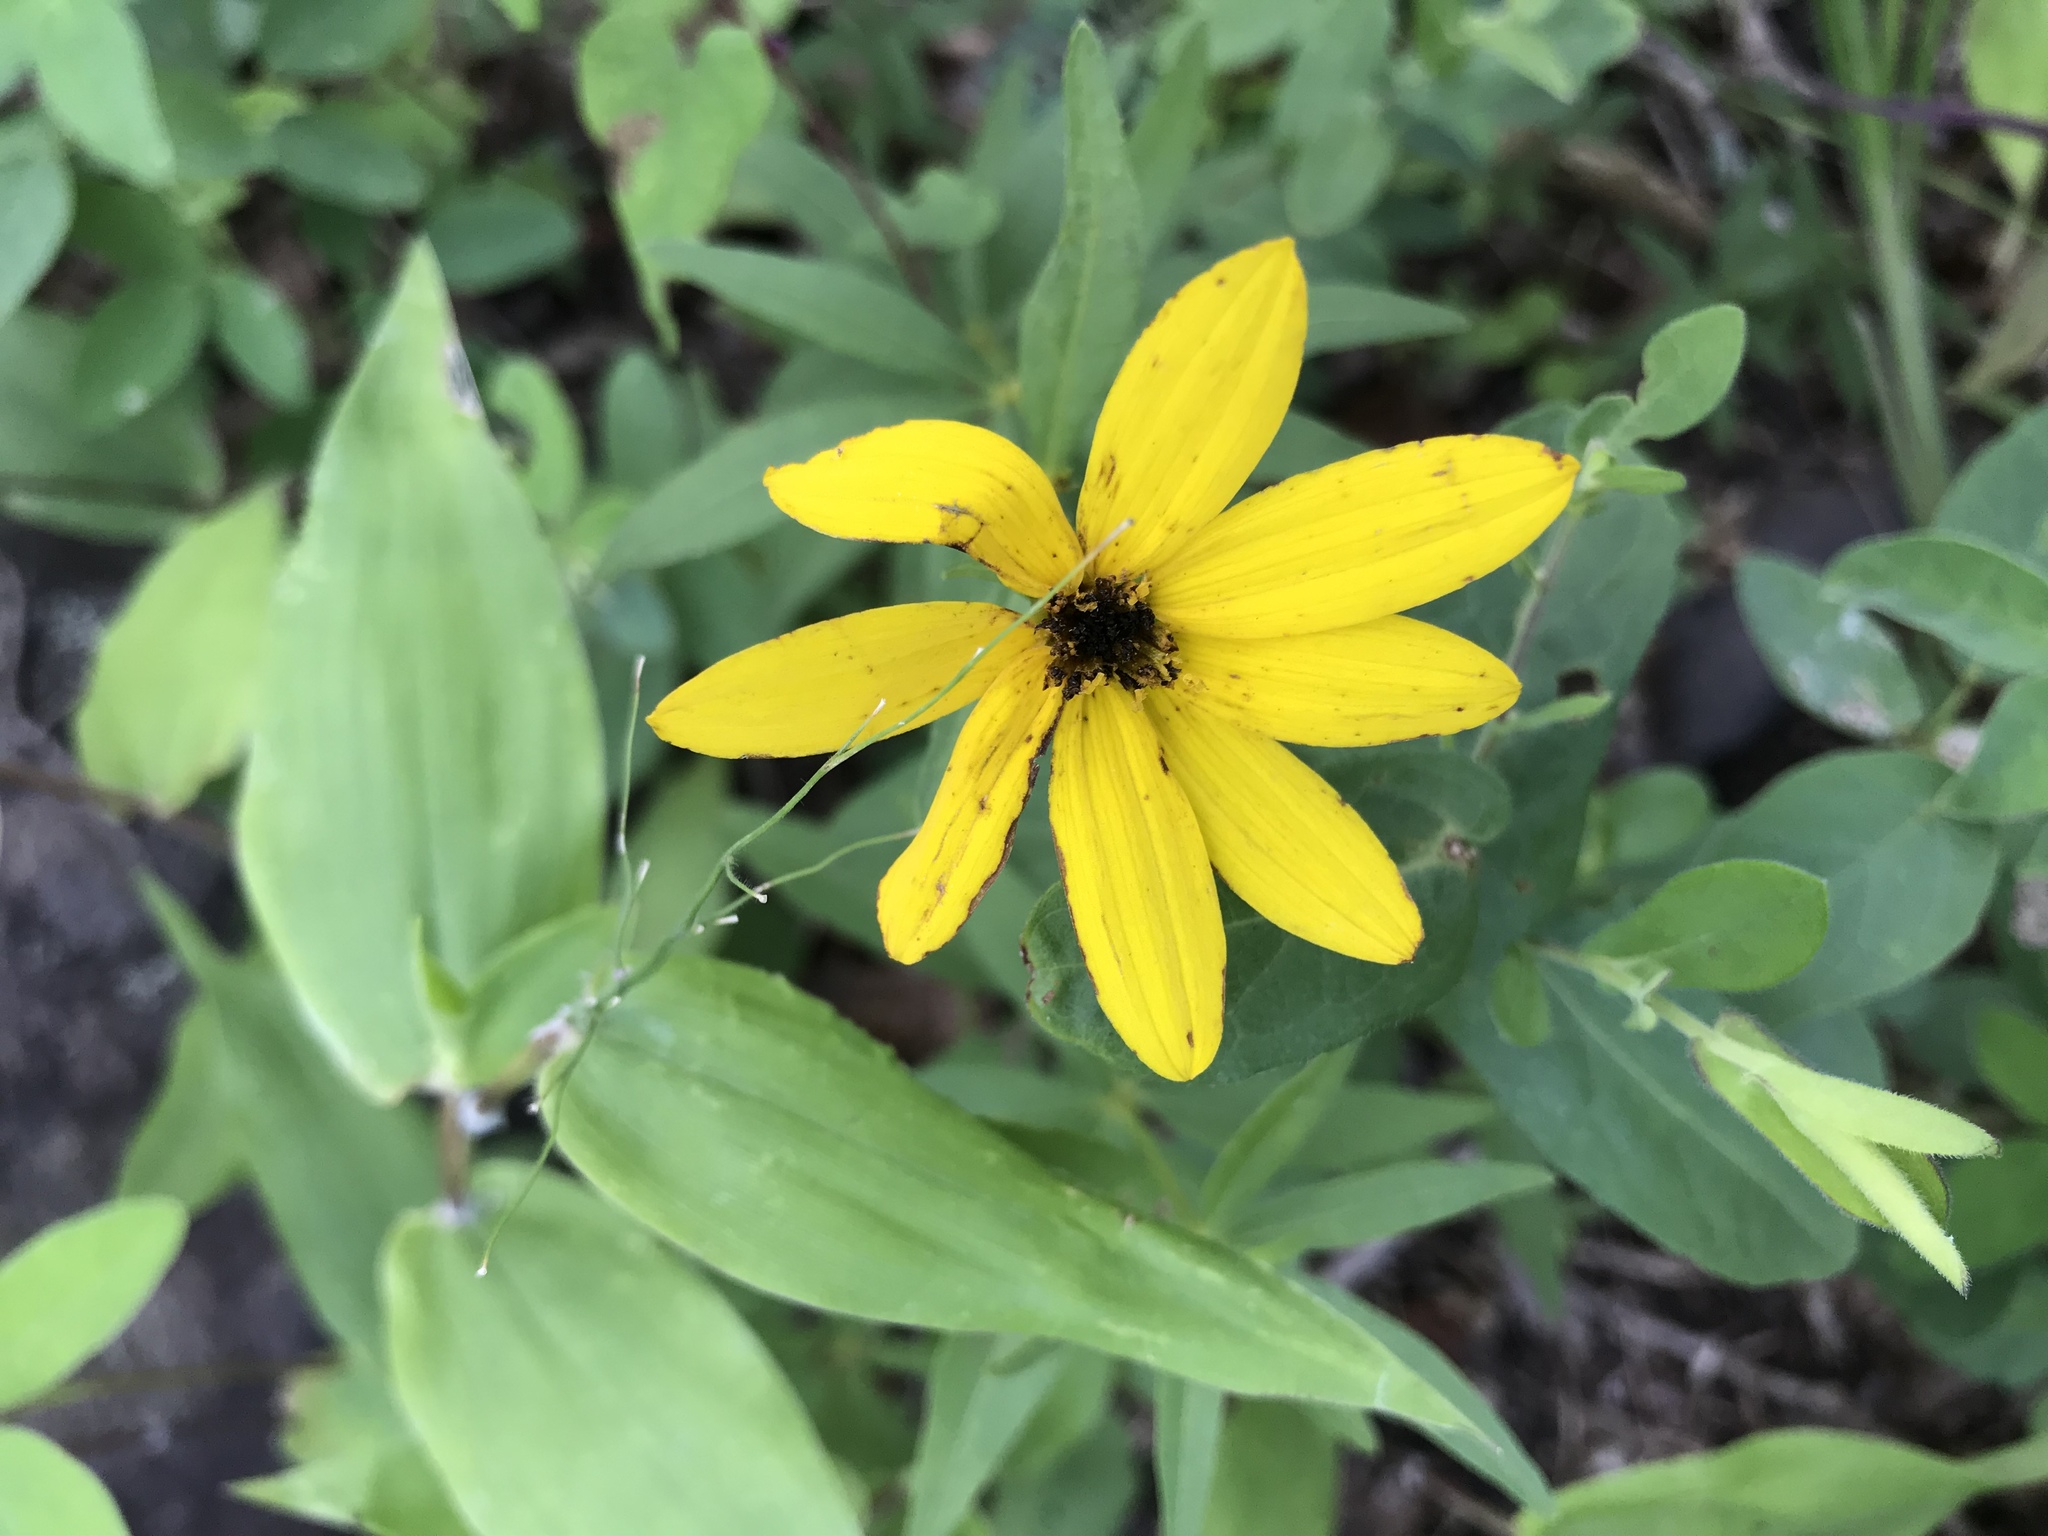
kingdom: Plantae
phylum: Tracheophyta
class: Magnoliopsida
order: Asterales
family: Asteraceae
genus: Coreopsis
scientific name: Coreopsis major
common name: Forest tickseed
